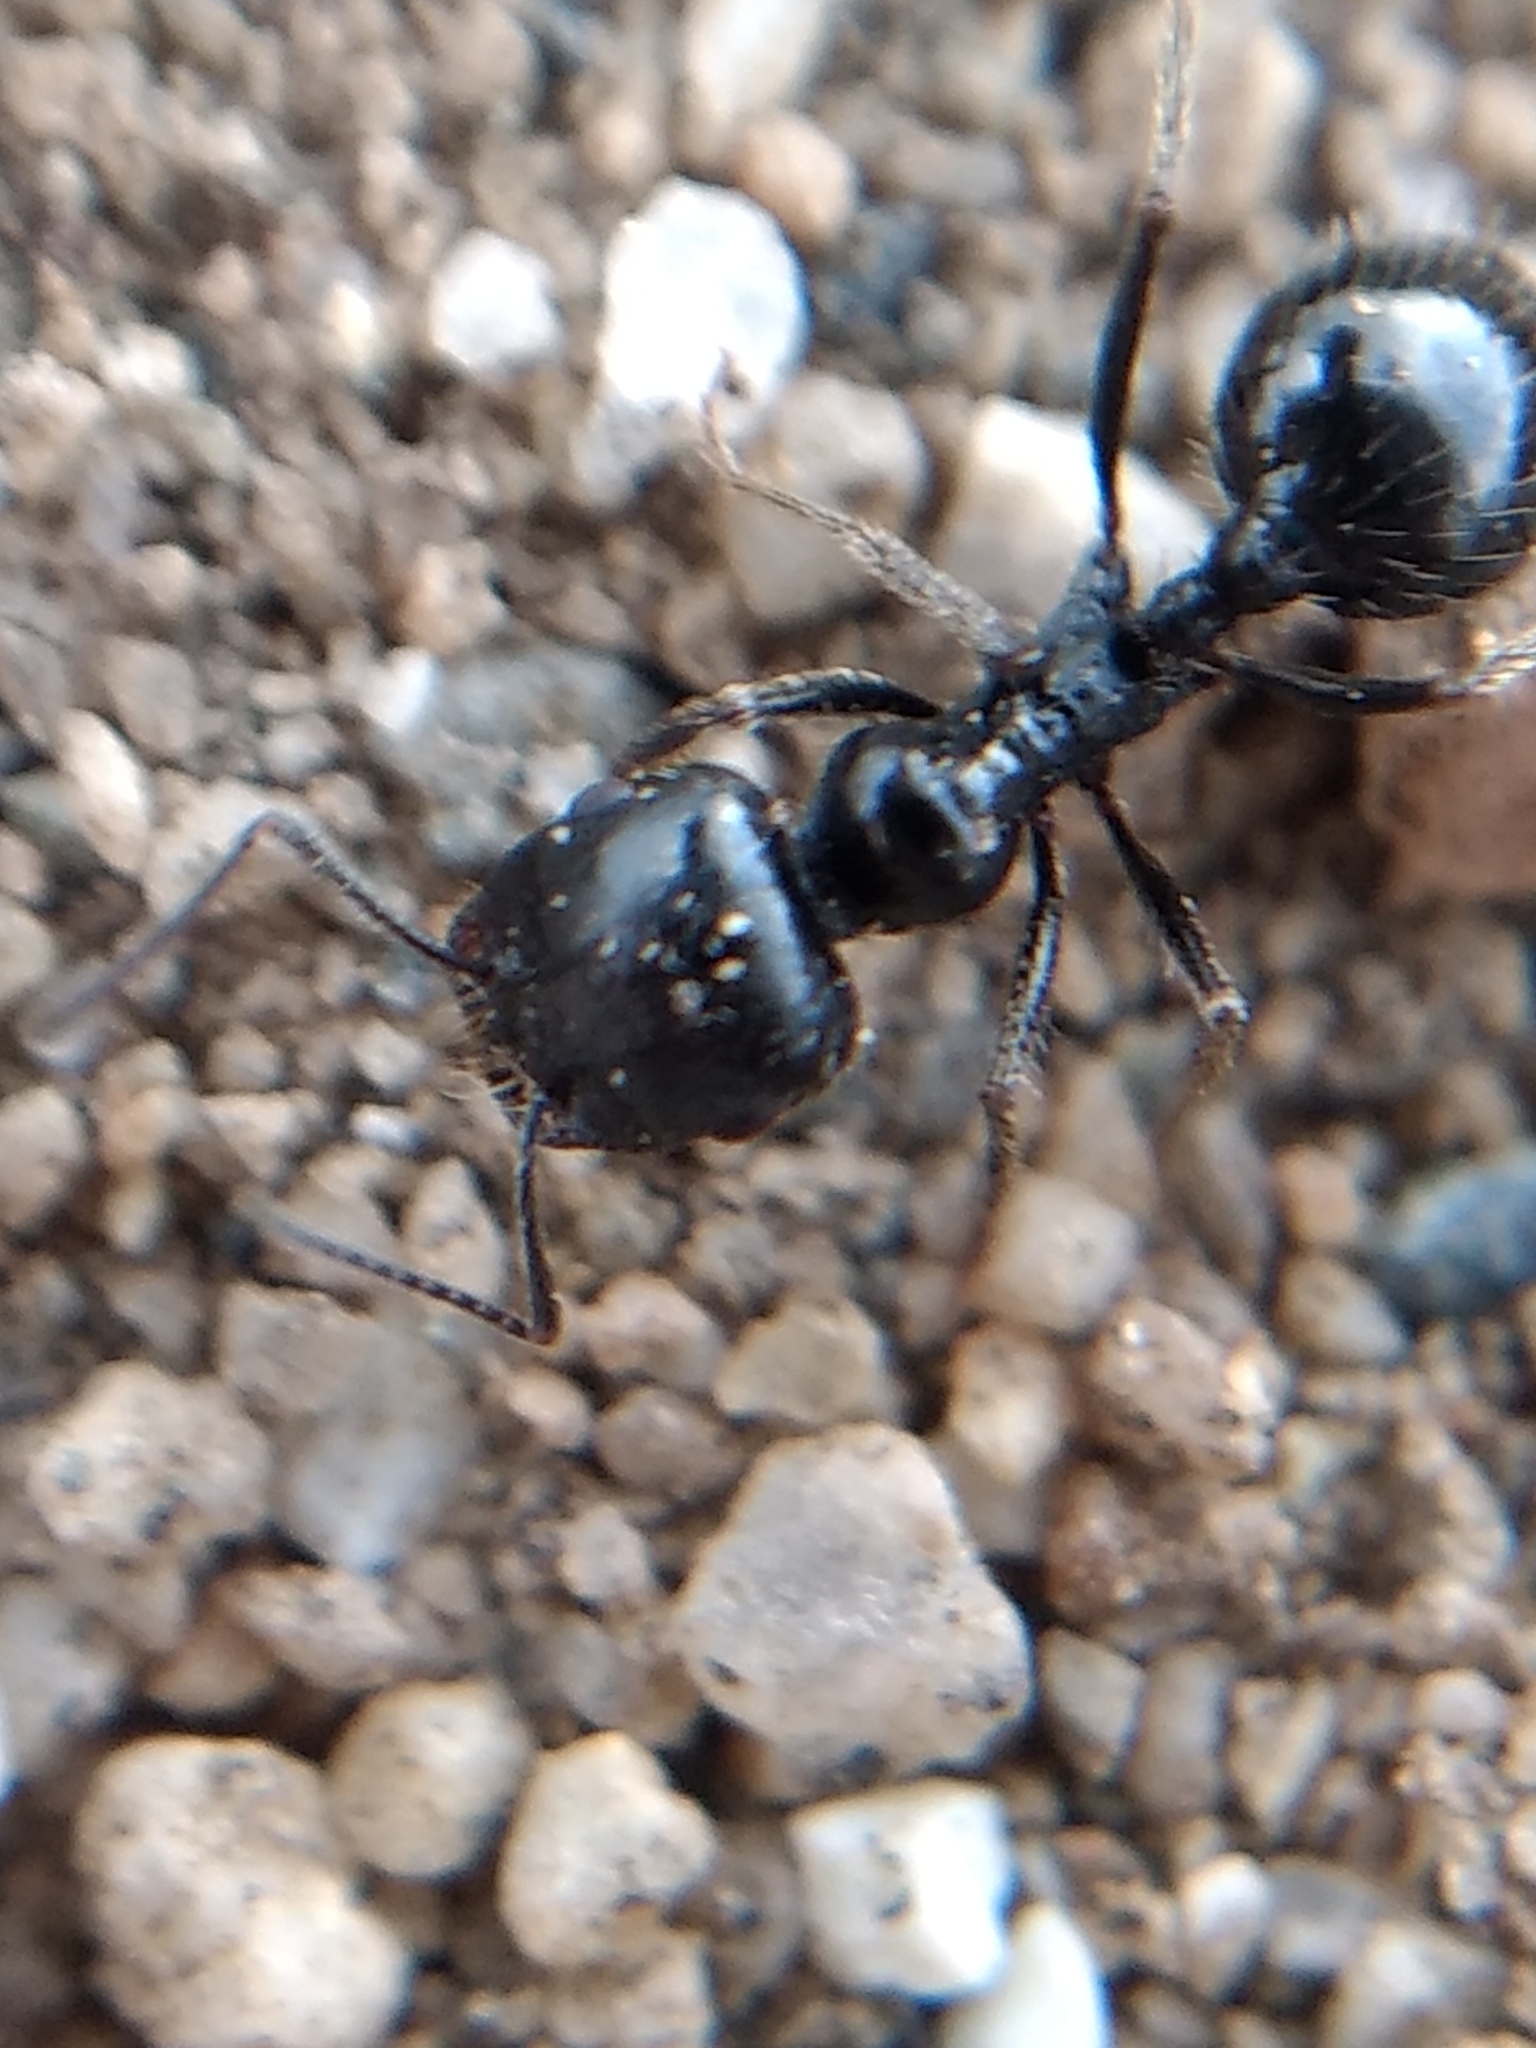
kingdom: Animalia
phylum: Arthropoda
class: Insecta
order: Hymenoptera
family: Formicidae
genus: Messor
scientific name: Messor pergandei
